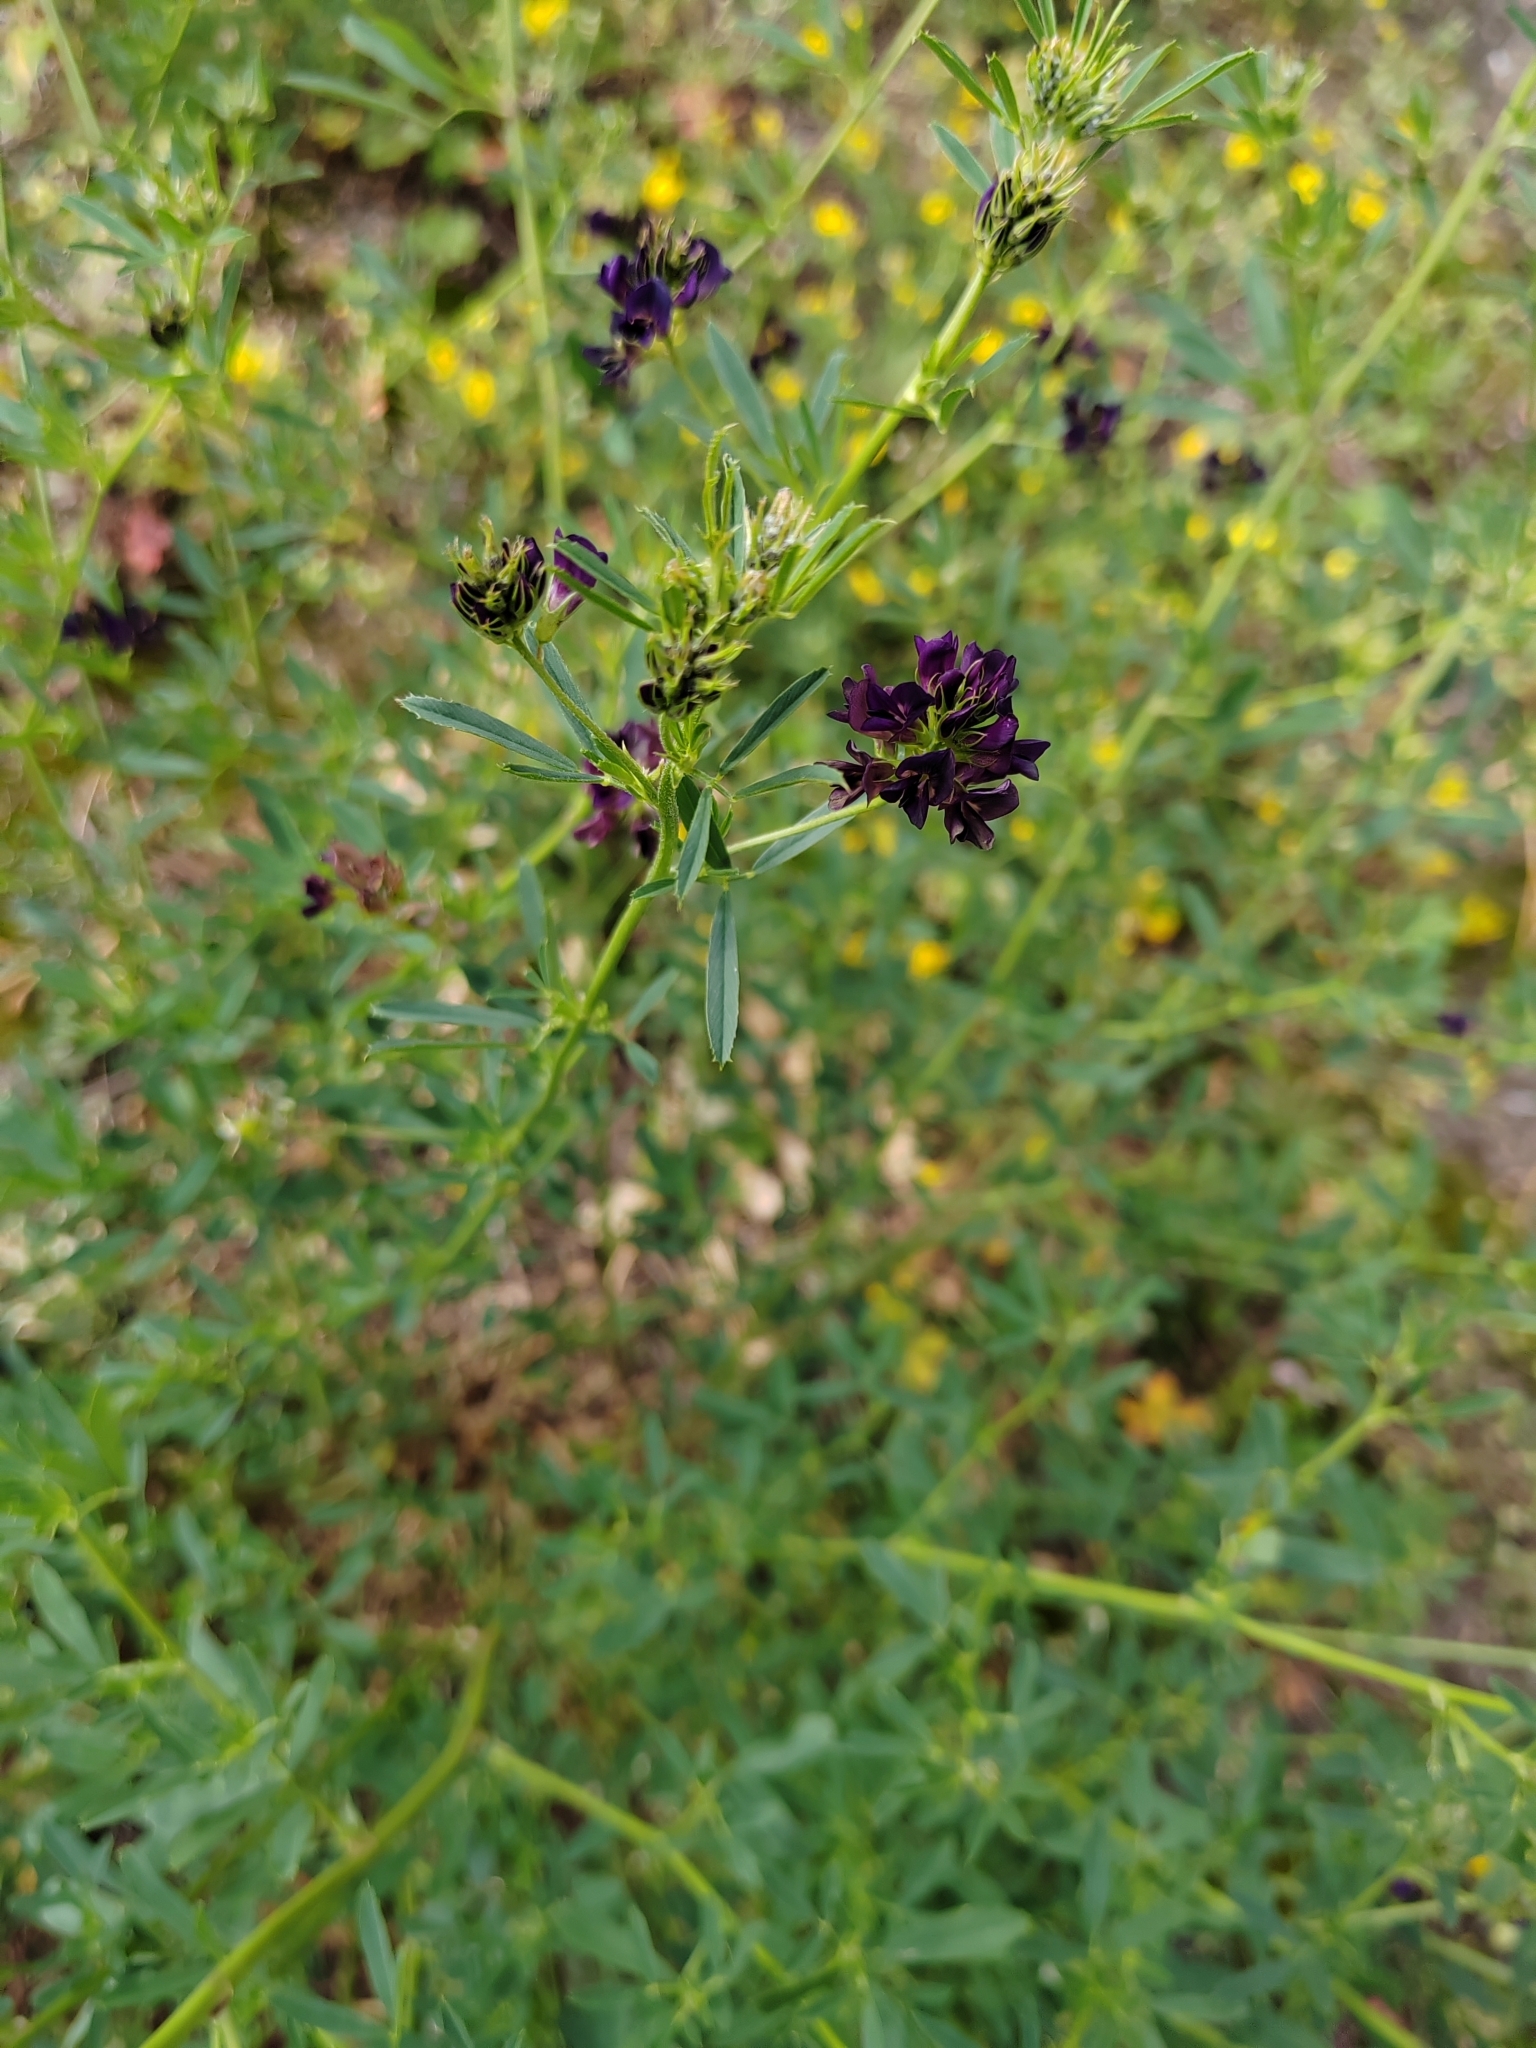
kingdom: Plantae
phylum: Tracheophyta
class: Magnoliopsida
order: Fabales
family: Fabaceae
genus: Medicago
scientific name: Medicago varia
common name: Sand lucerne
